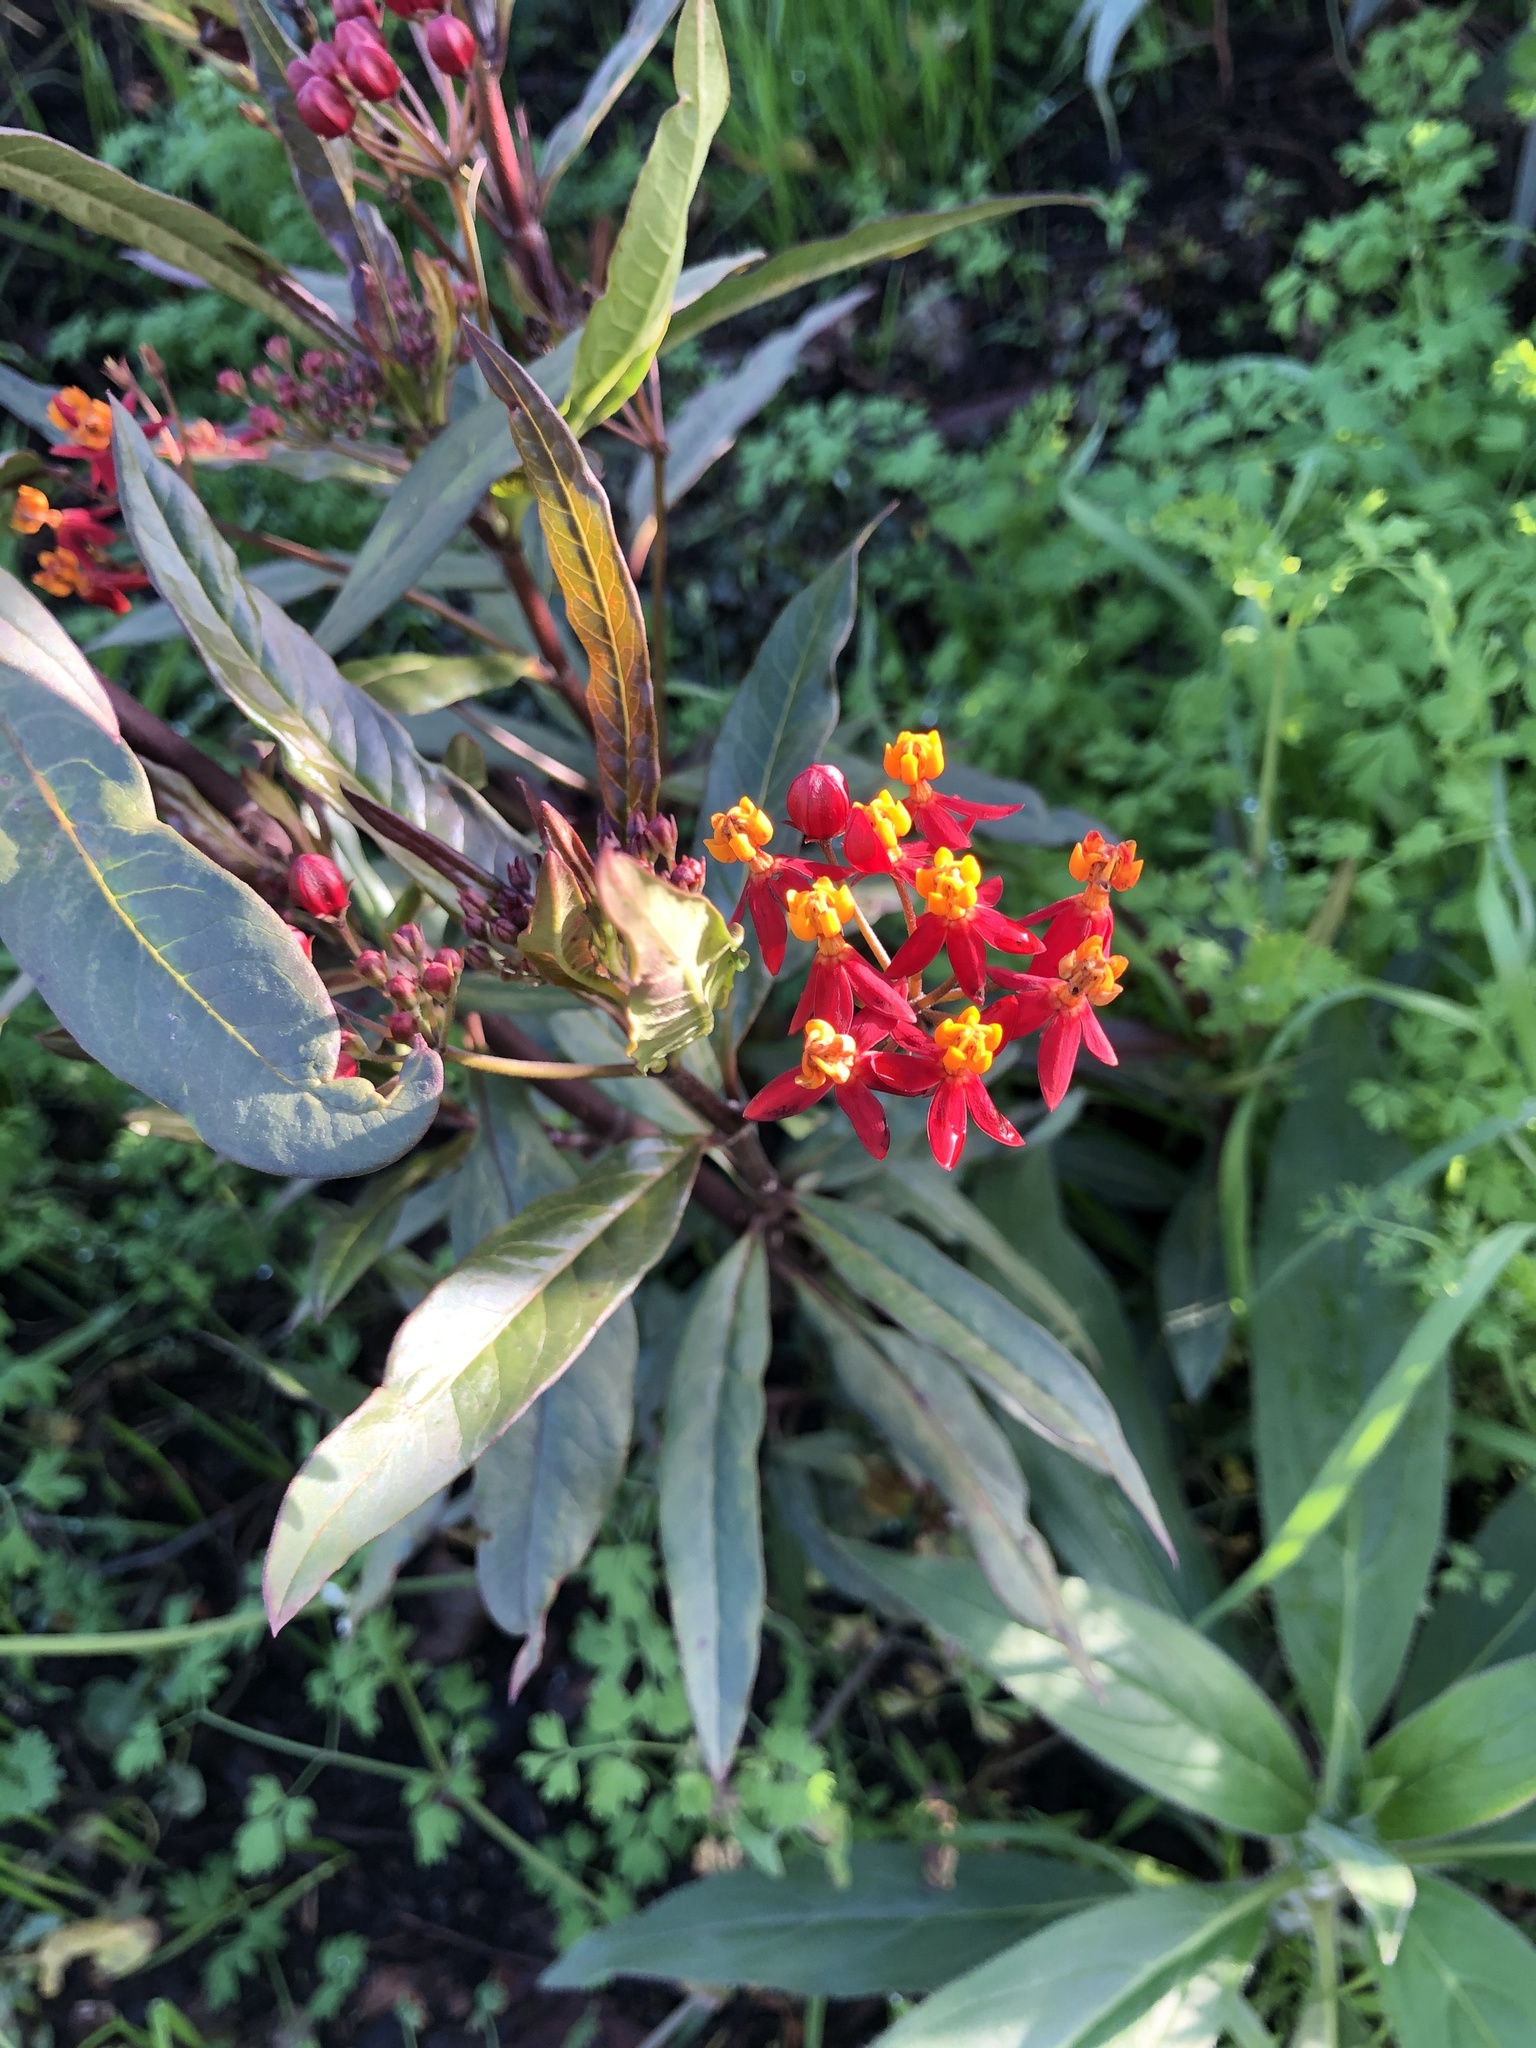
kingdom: Plantae
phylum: Tracheophyta
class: Magnoliopsida
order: Gentianales
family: Apocynaceae
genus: Asclepias
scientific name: Asclepias curassavica
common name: Bloodflower
